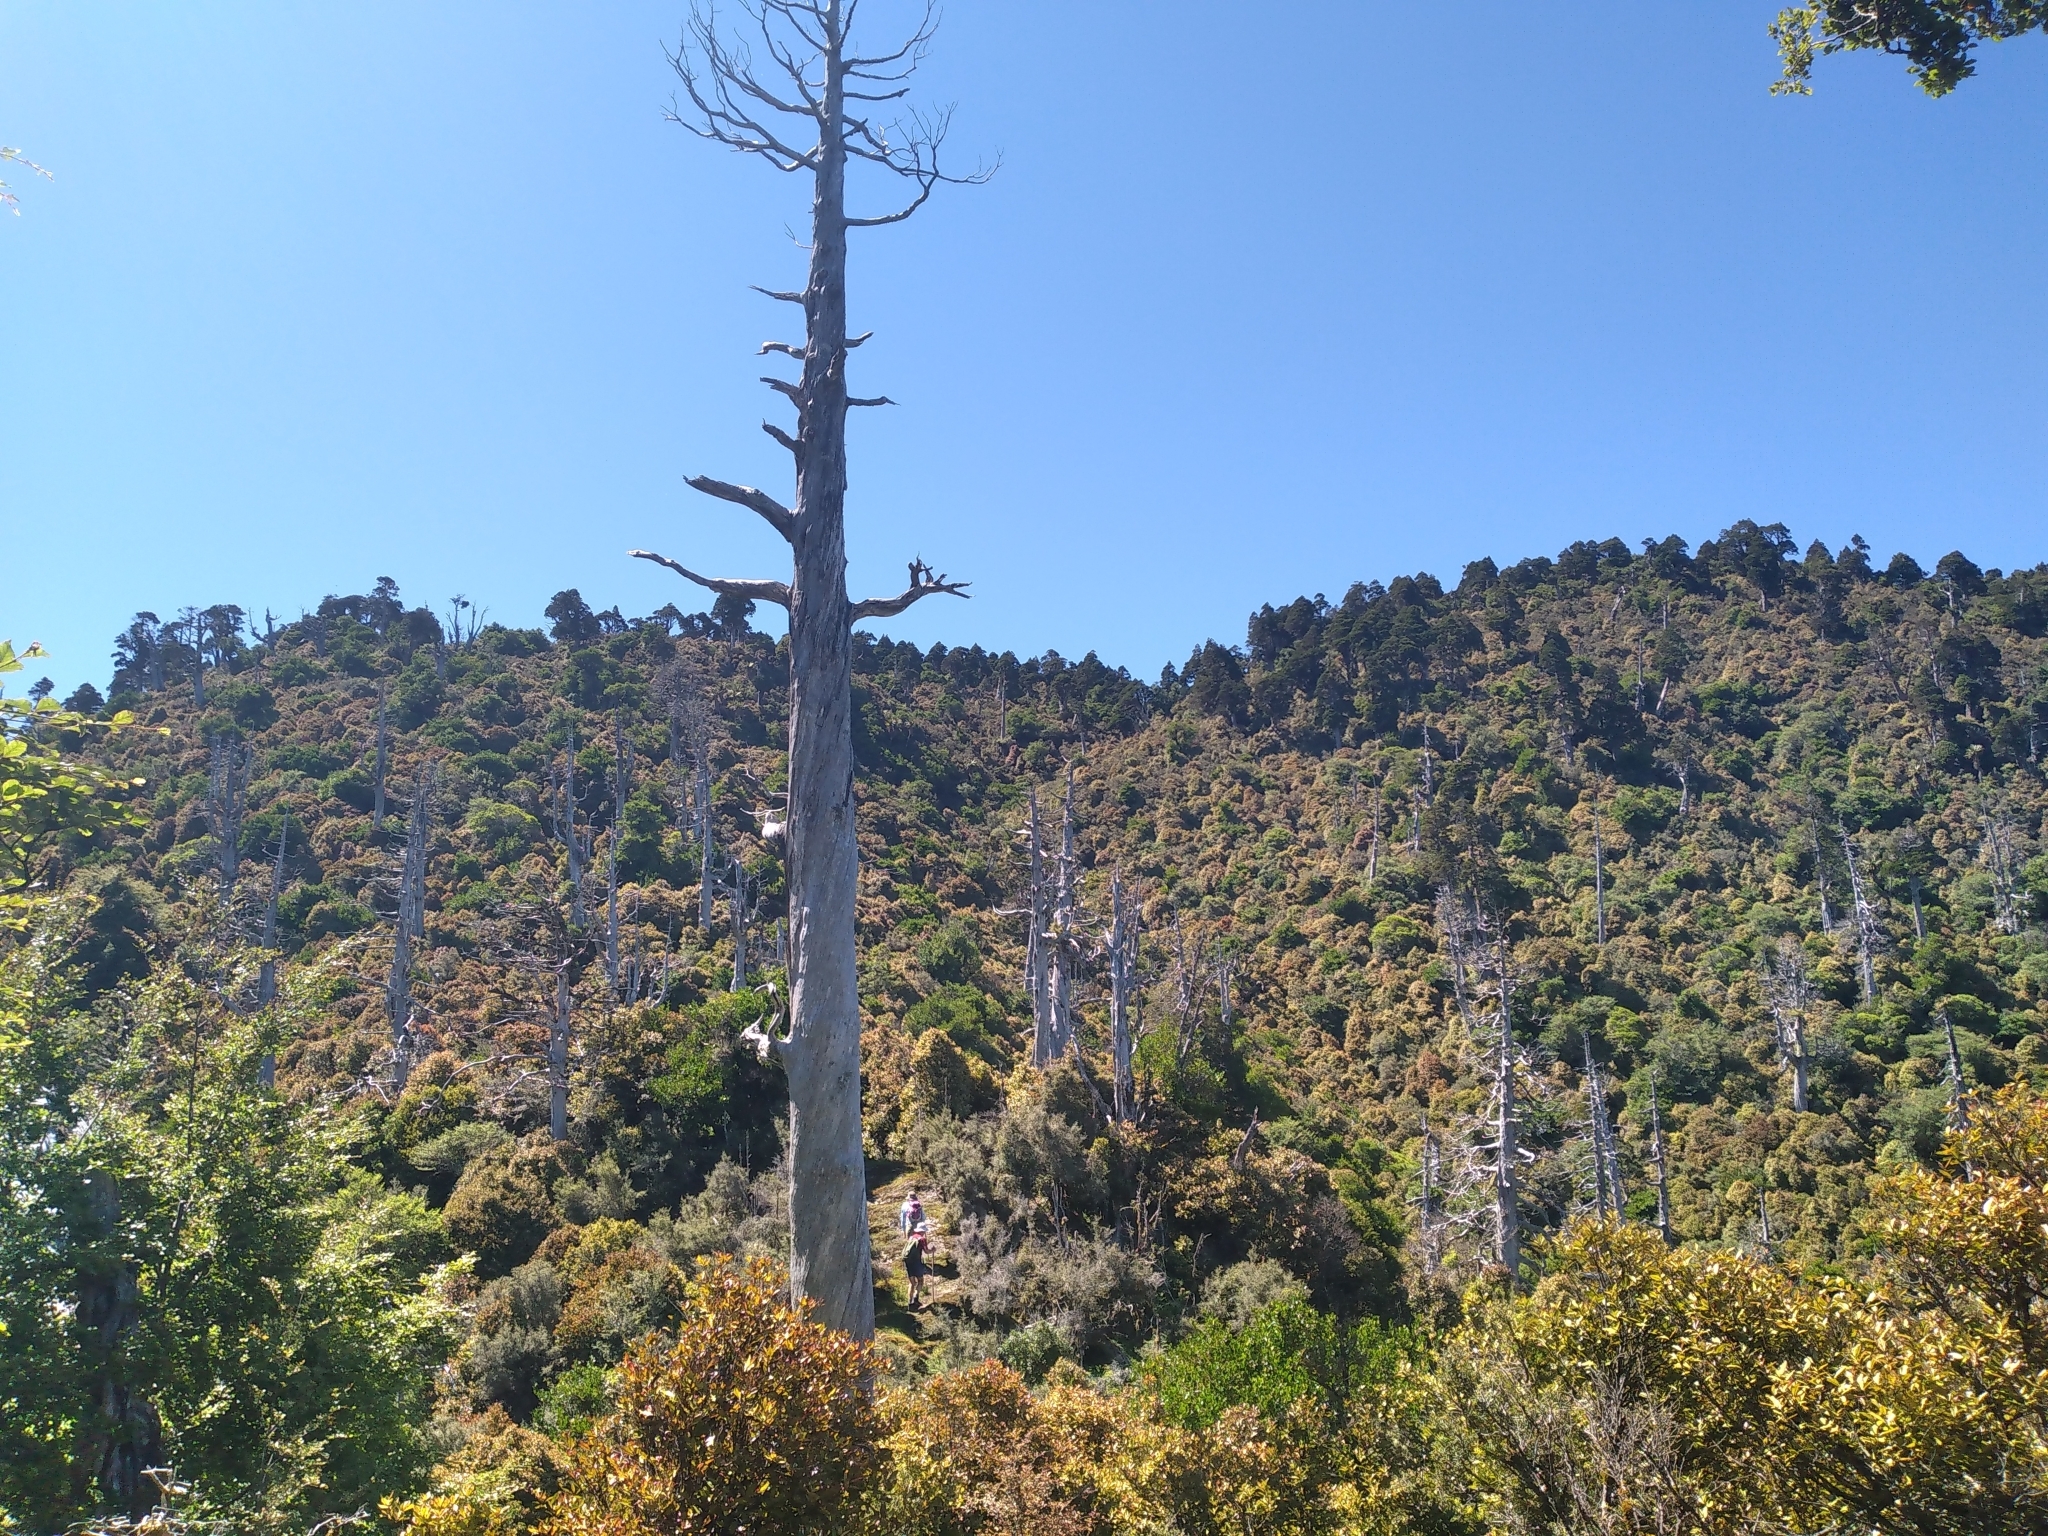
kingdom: Plantae
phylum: Tracheophyta
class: Pinopsida
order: Pinales
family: Cupressaceae
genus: Libocedrus
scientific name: Libocedrus bidwillii
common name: Cedar
